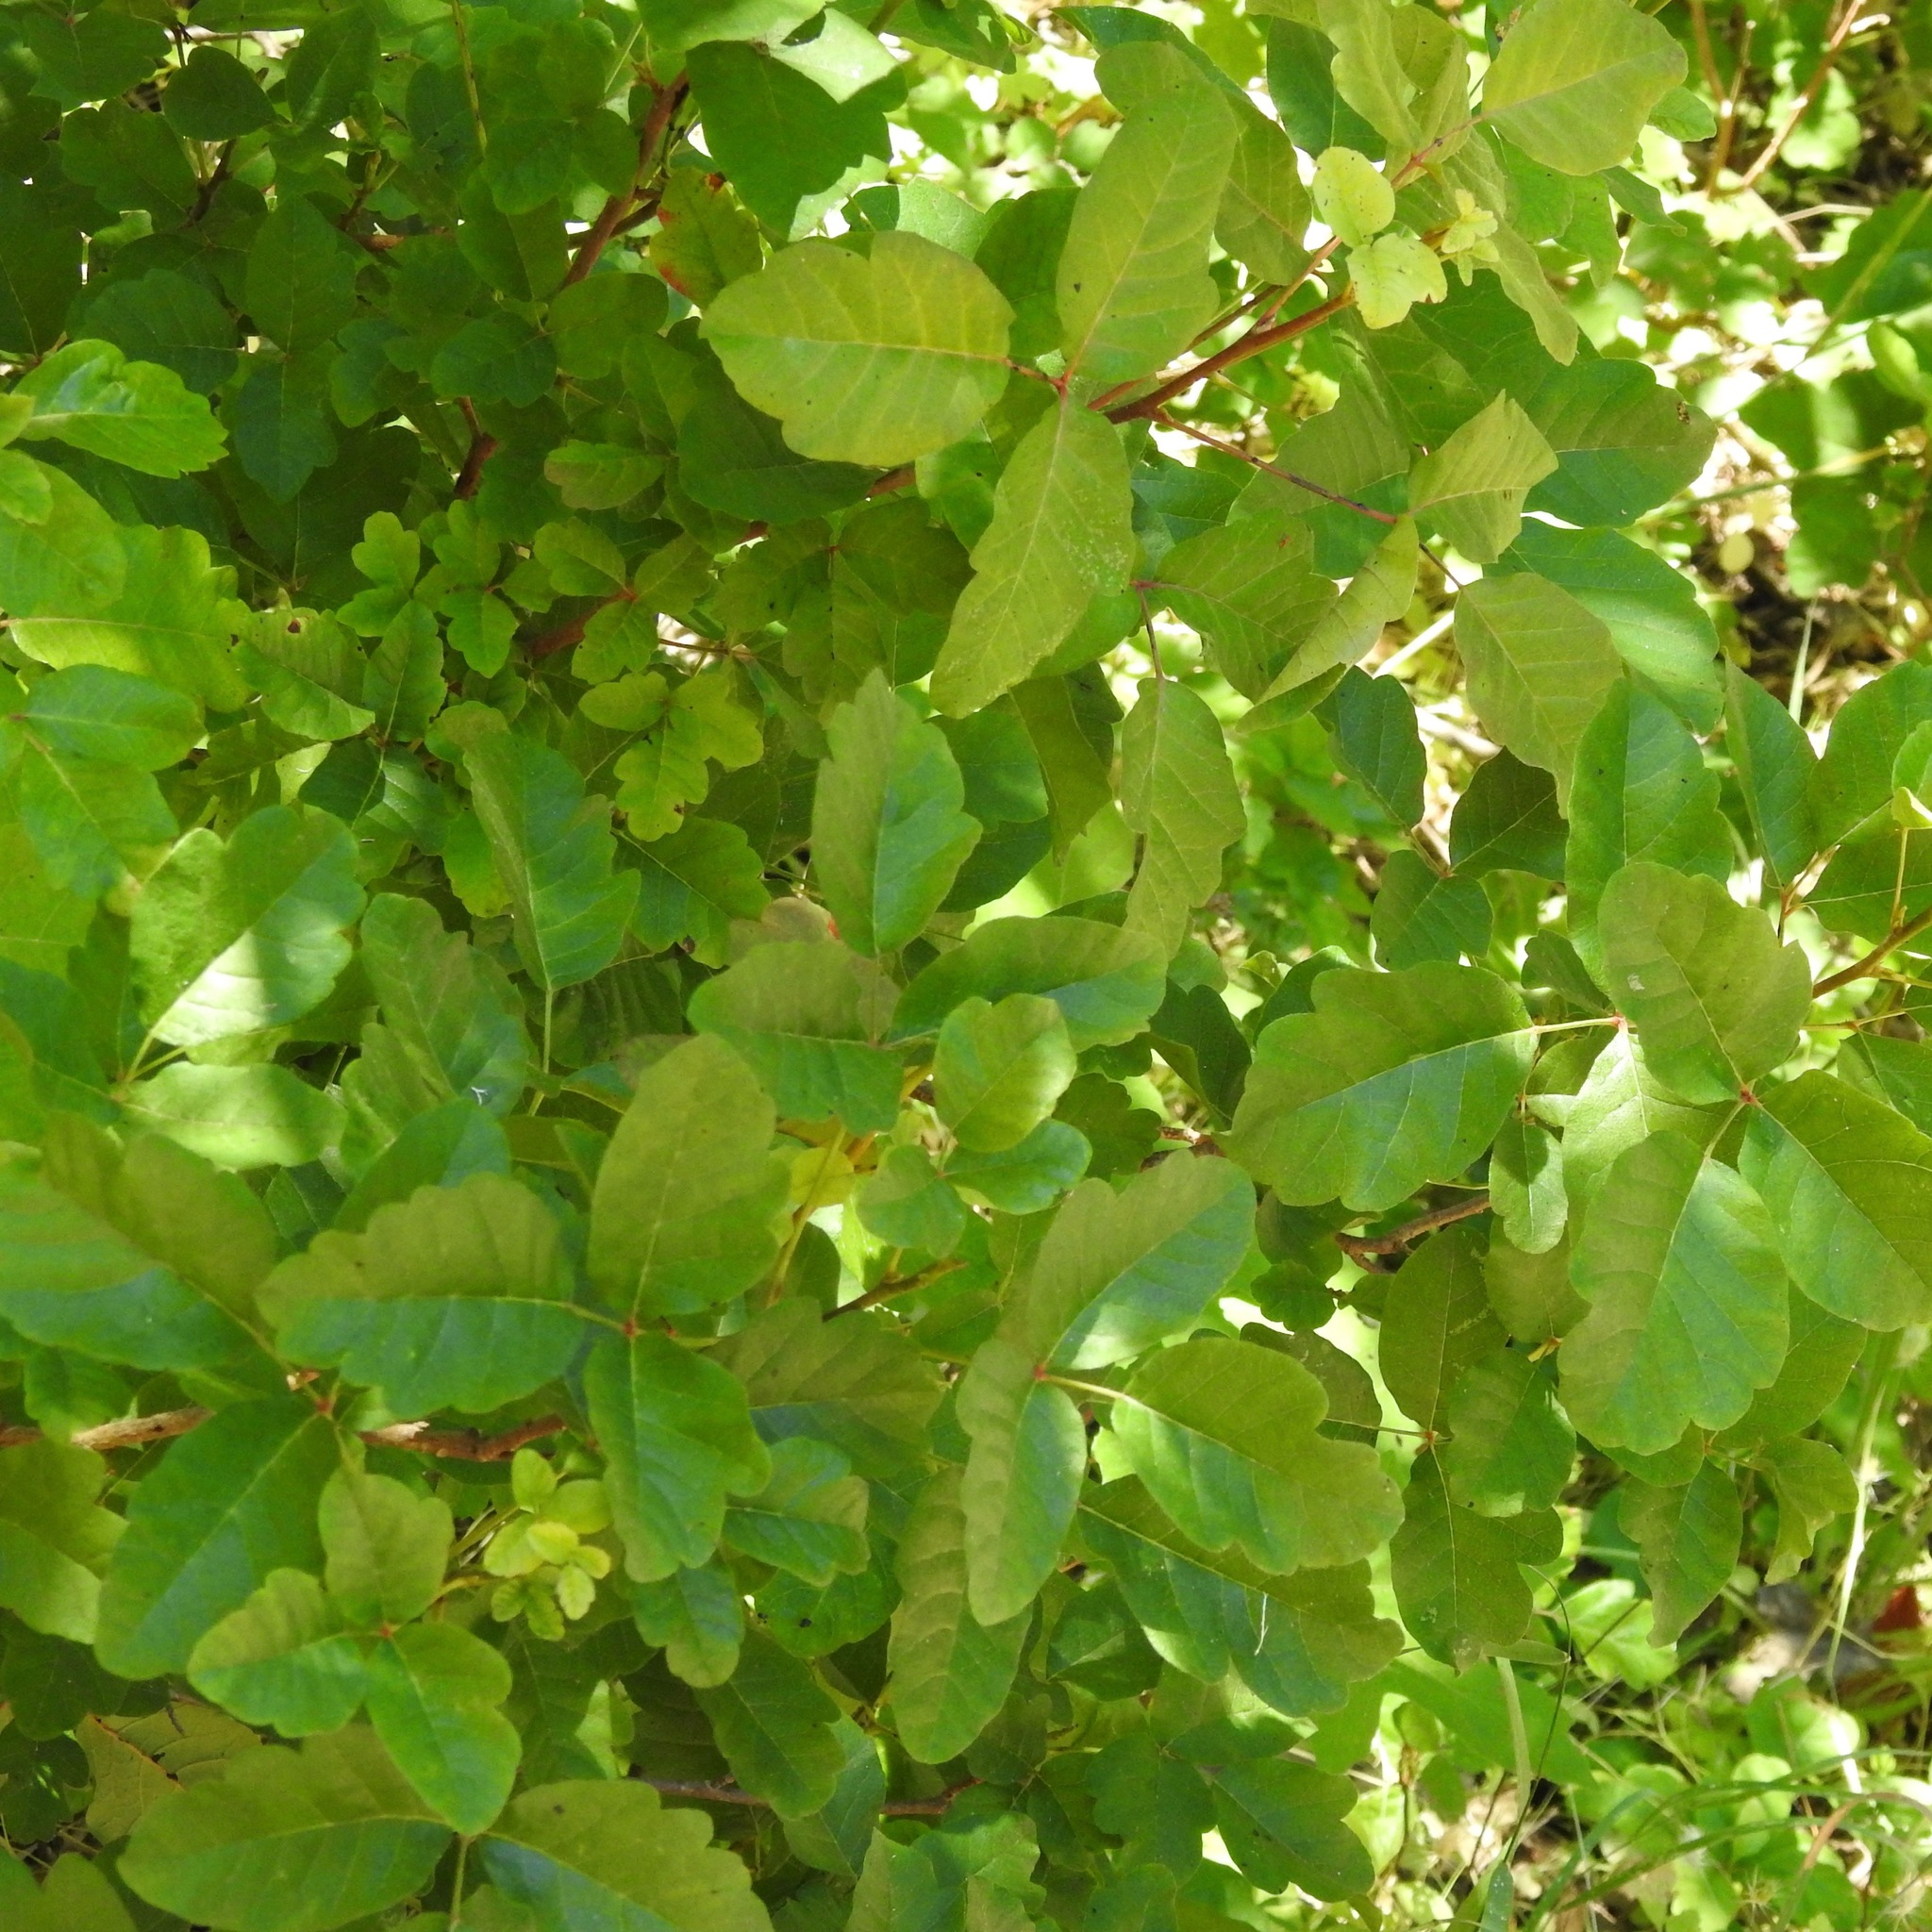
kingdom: Plantae
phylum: Tracheophyta
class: Magnoliopsida
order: Sapindales
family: Anacardiaceae
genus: Toxicodendron
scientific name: Toxicodendron diversilobum
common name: Pacific poison-oak
